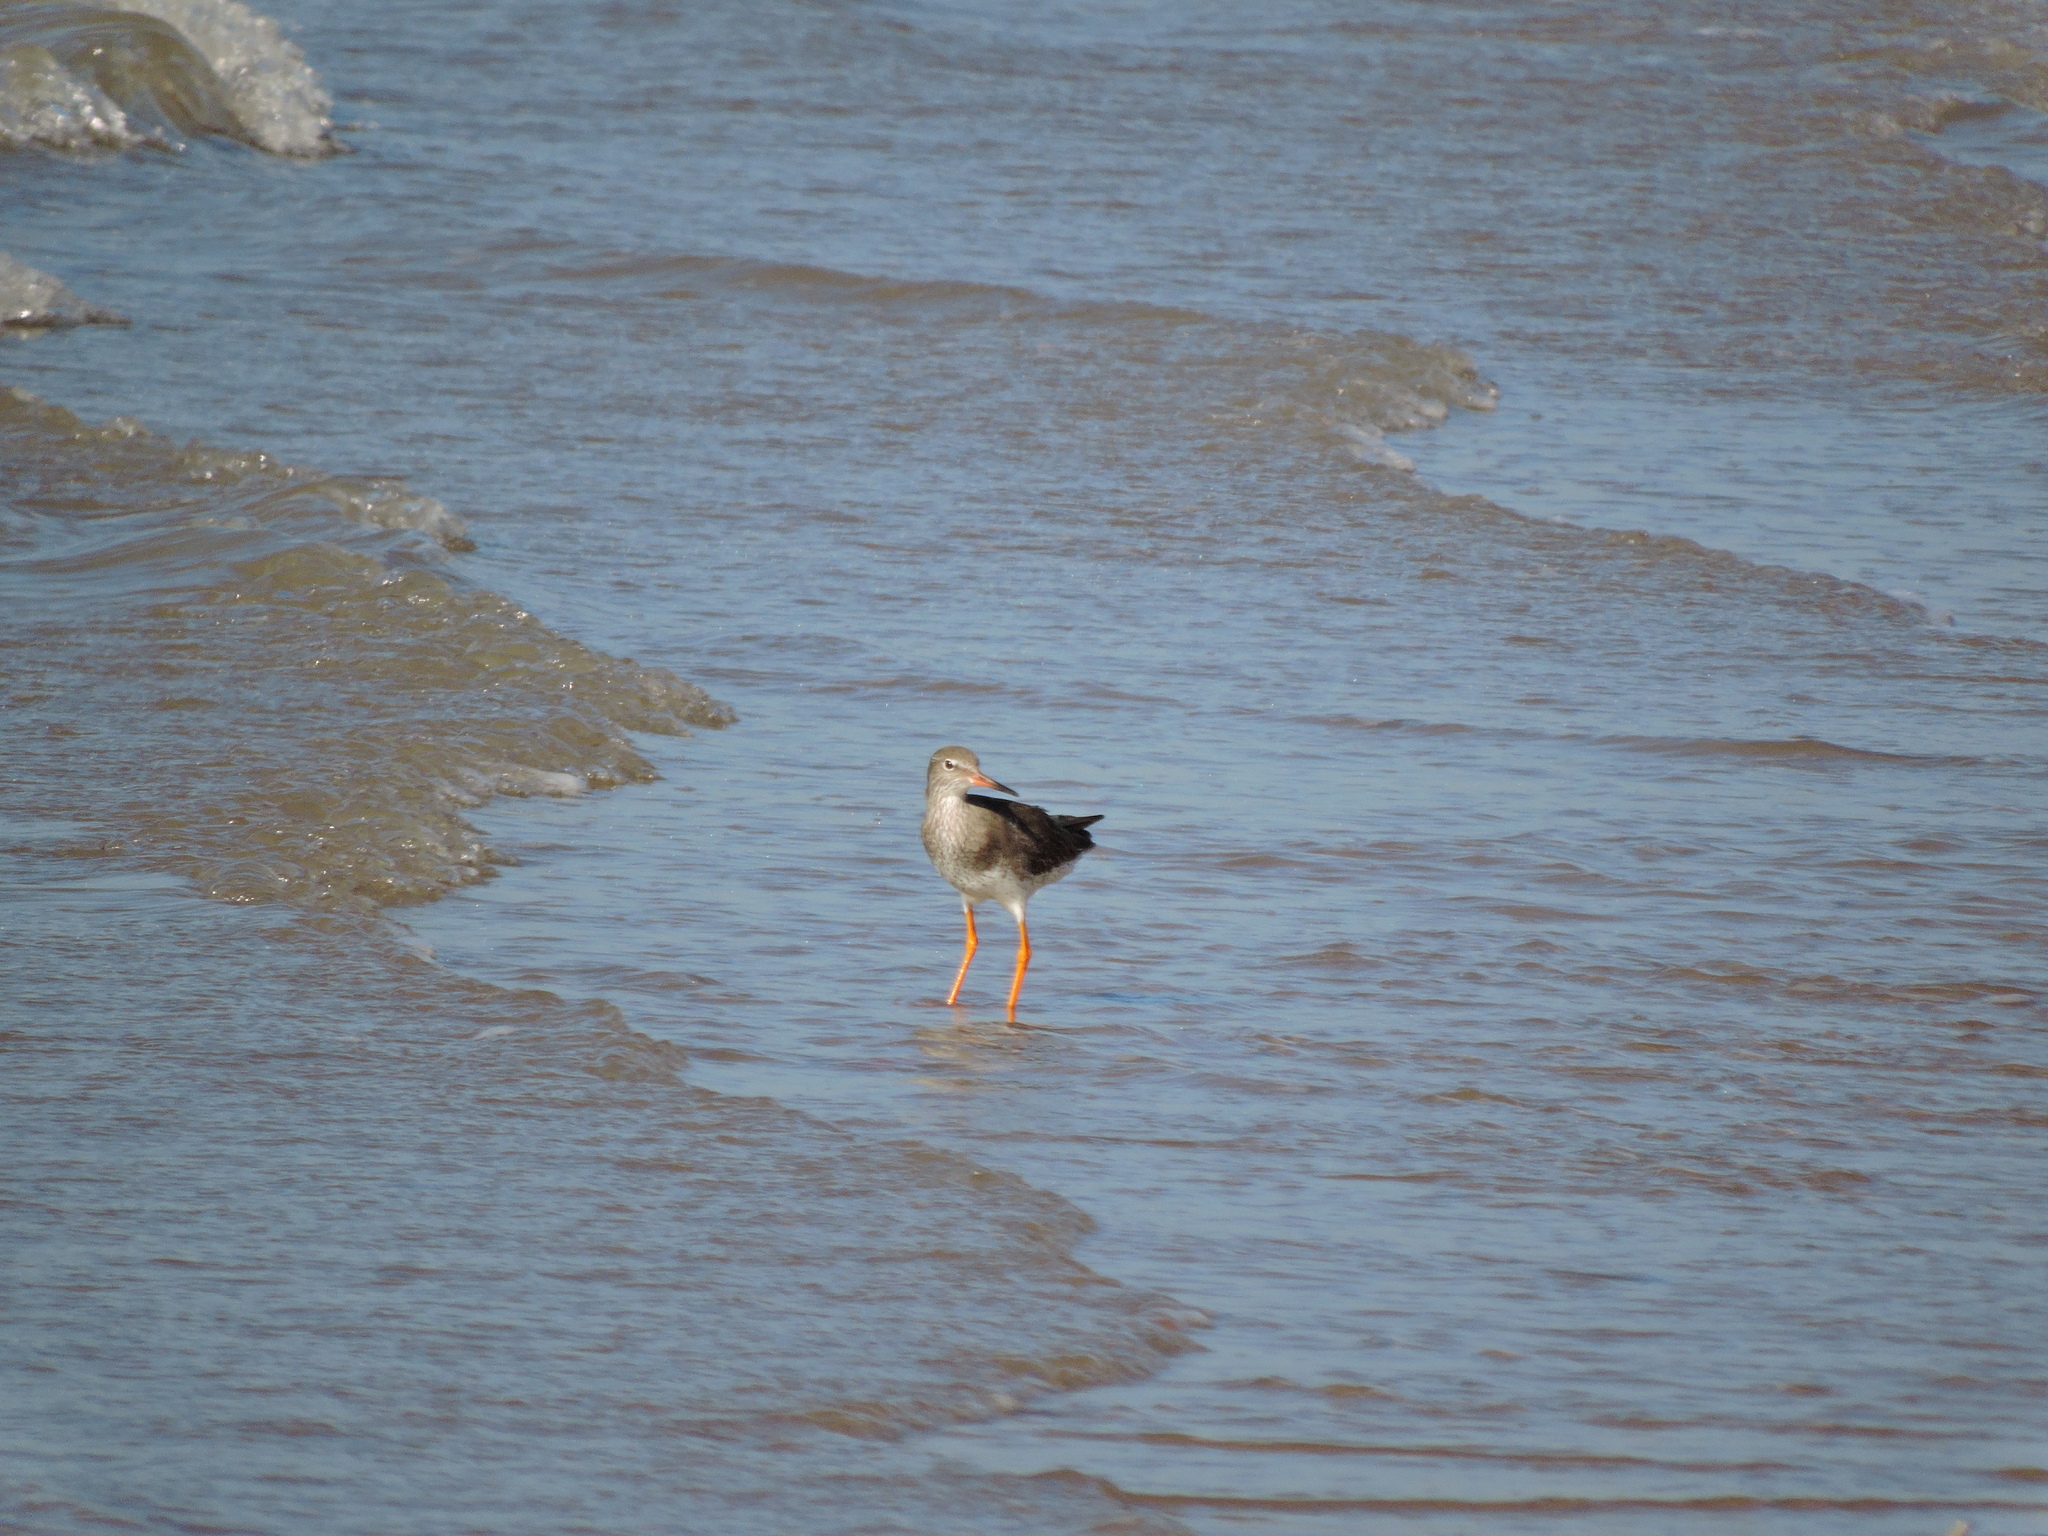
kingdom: Animalia
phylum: Chordata
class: Aves
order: Charadriiformes
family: Scolopacidae
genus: Tringa
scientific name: Tringa totanus
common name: Common redshank
